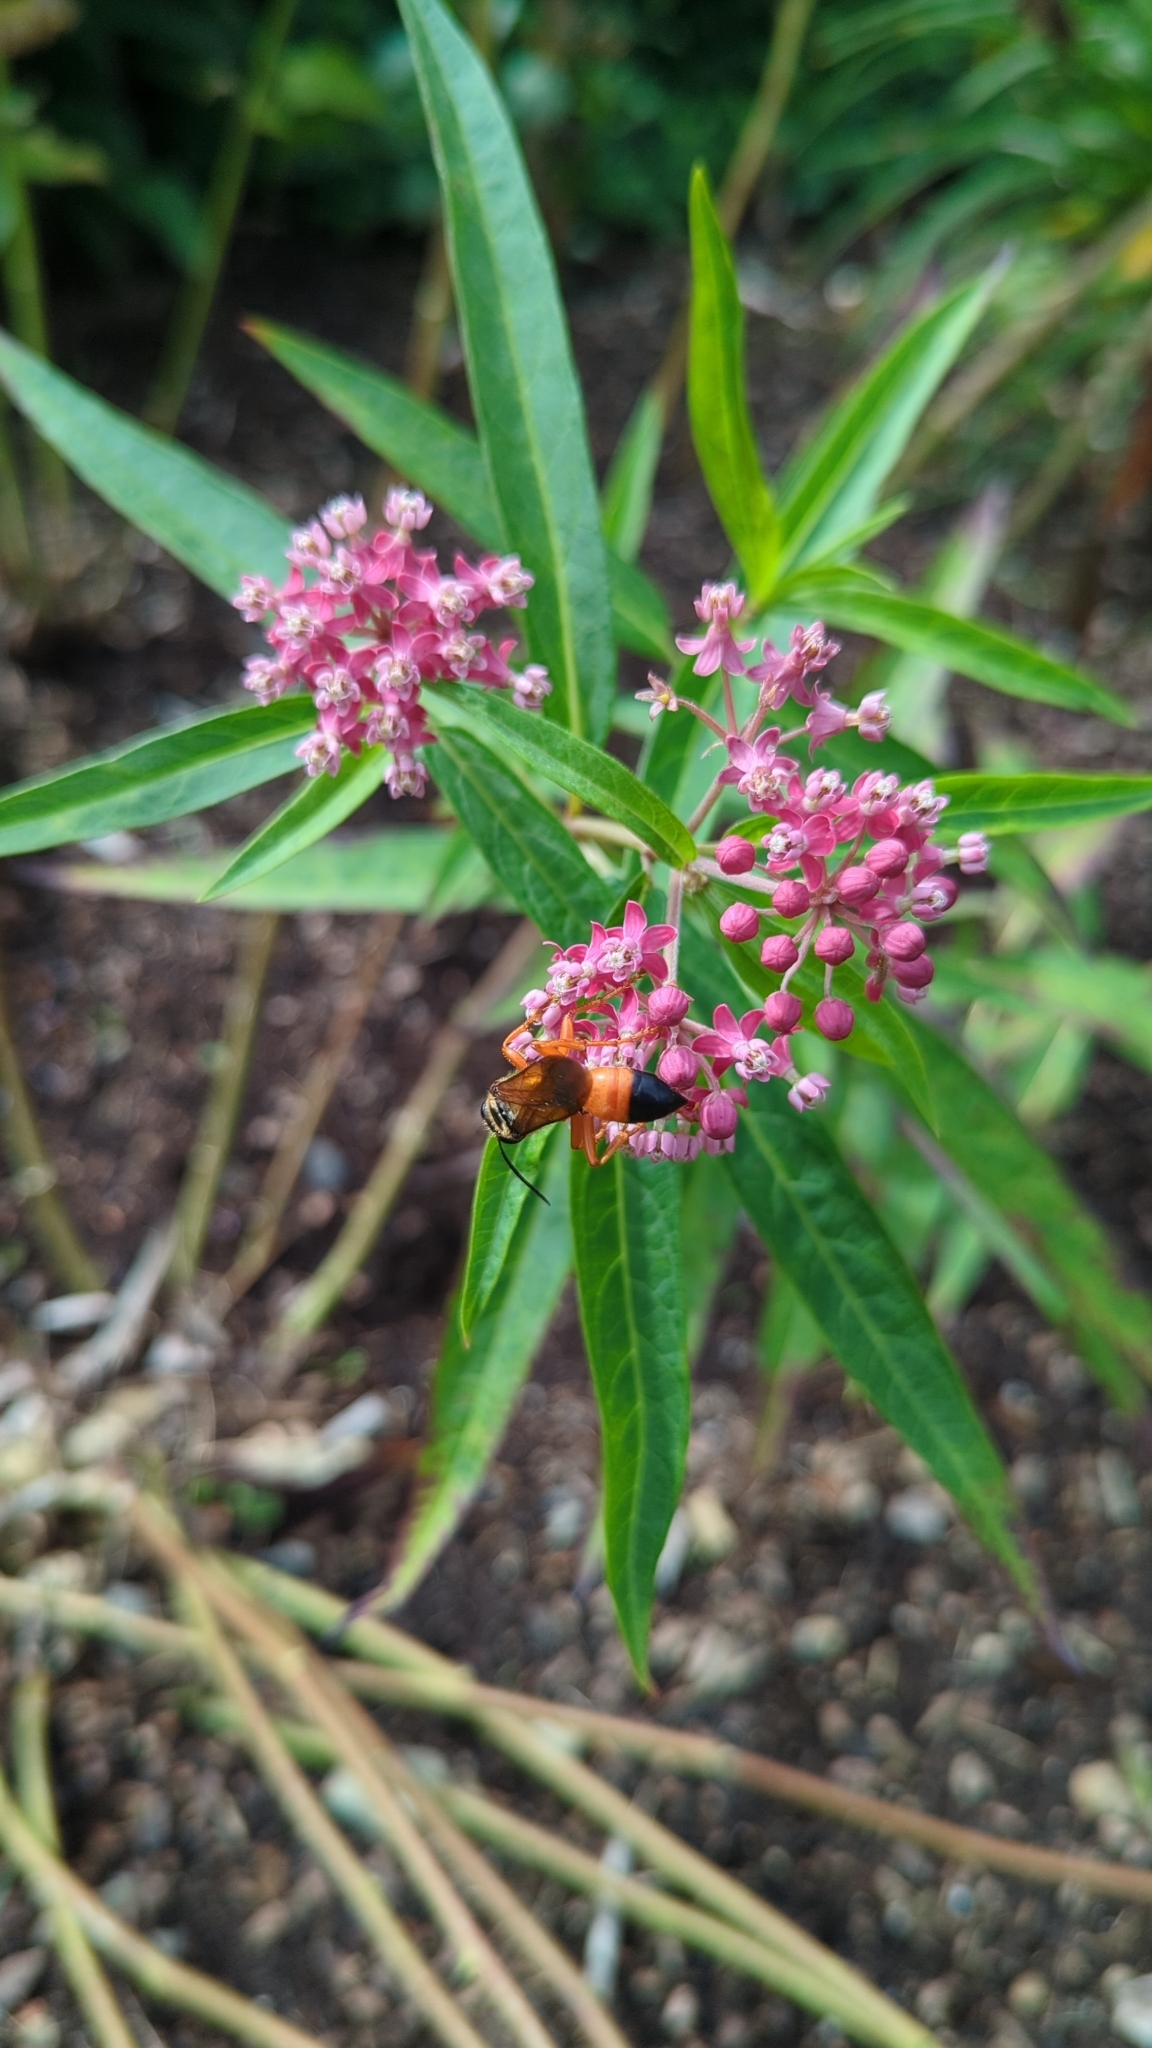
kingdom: Animalia
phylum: Arthropoda
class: Insecta
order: Hymenoptera
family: Sphecidae
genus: Sphex
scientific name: Sphex ichneumoneus
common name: Great golden digger wasp
